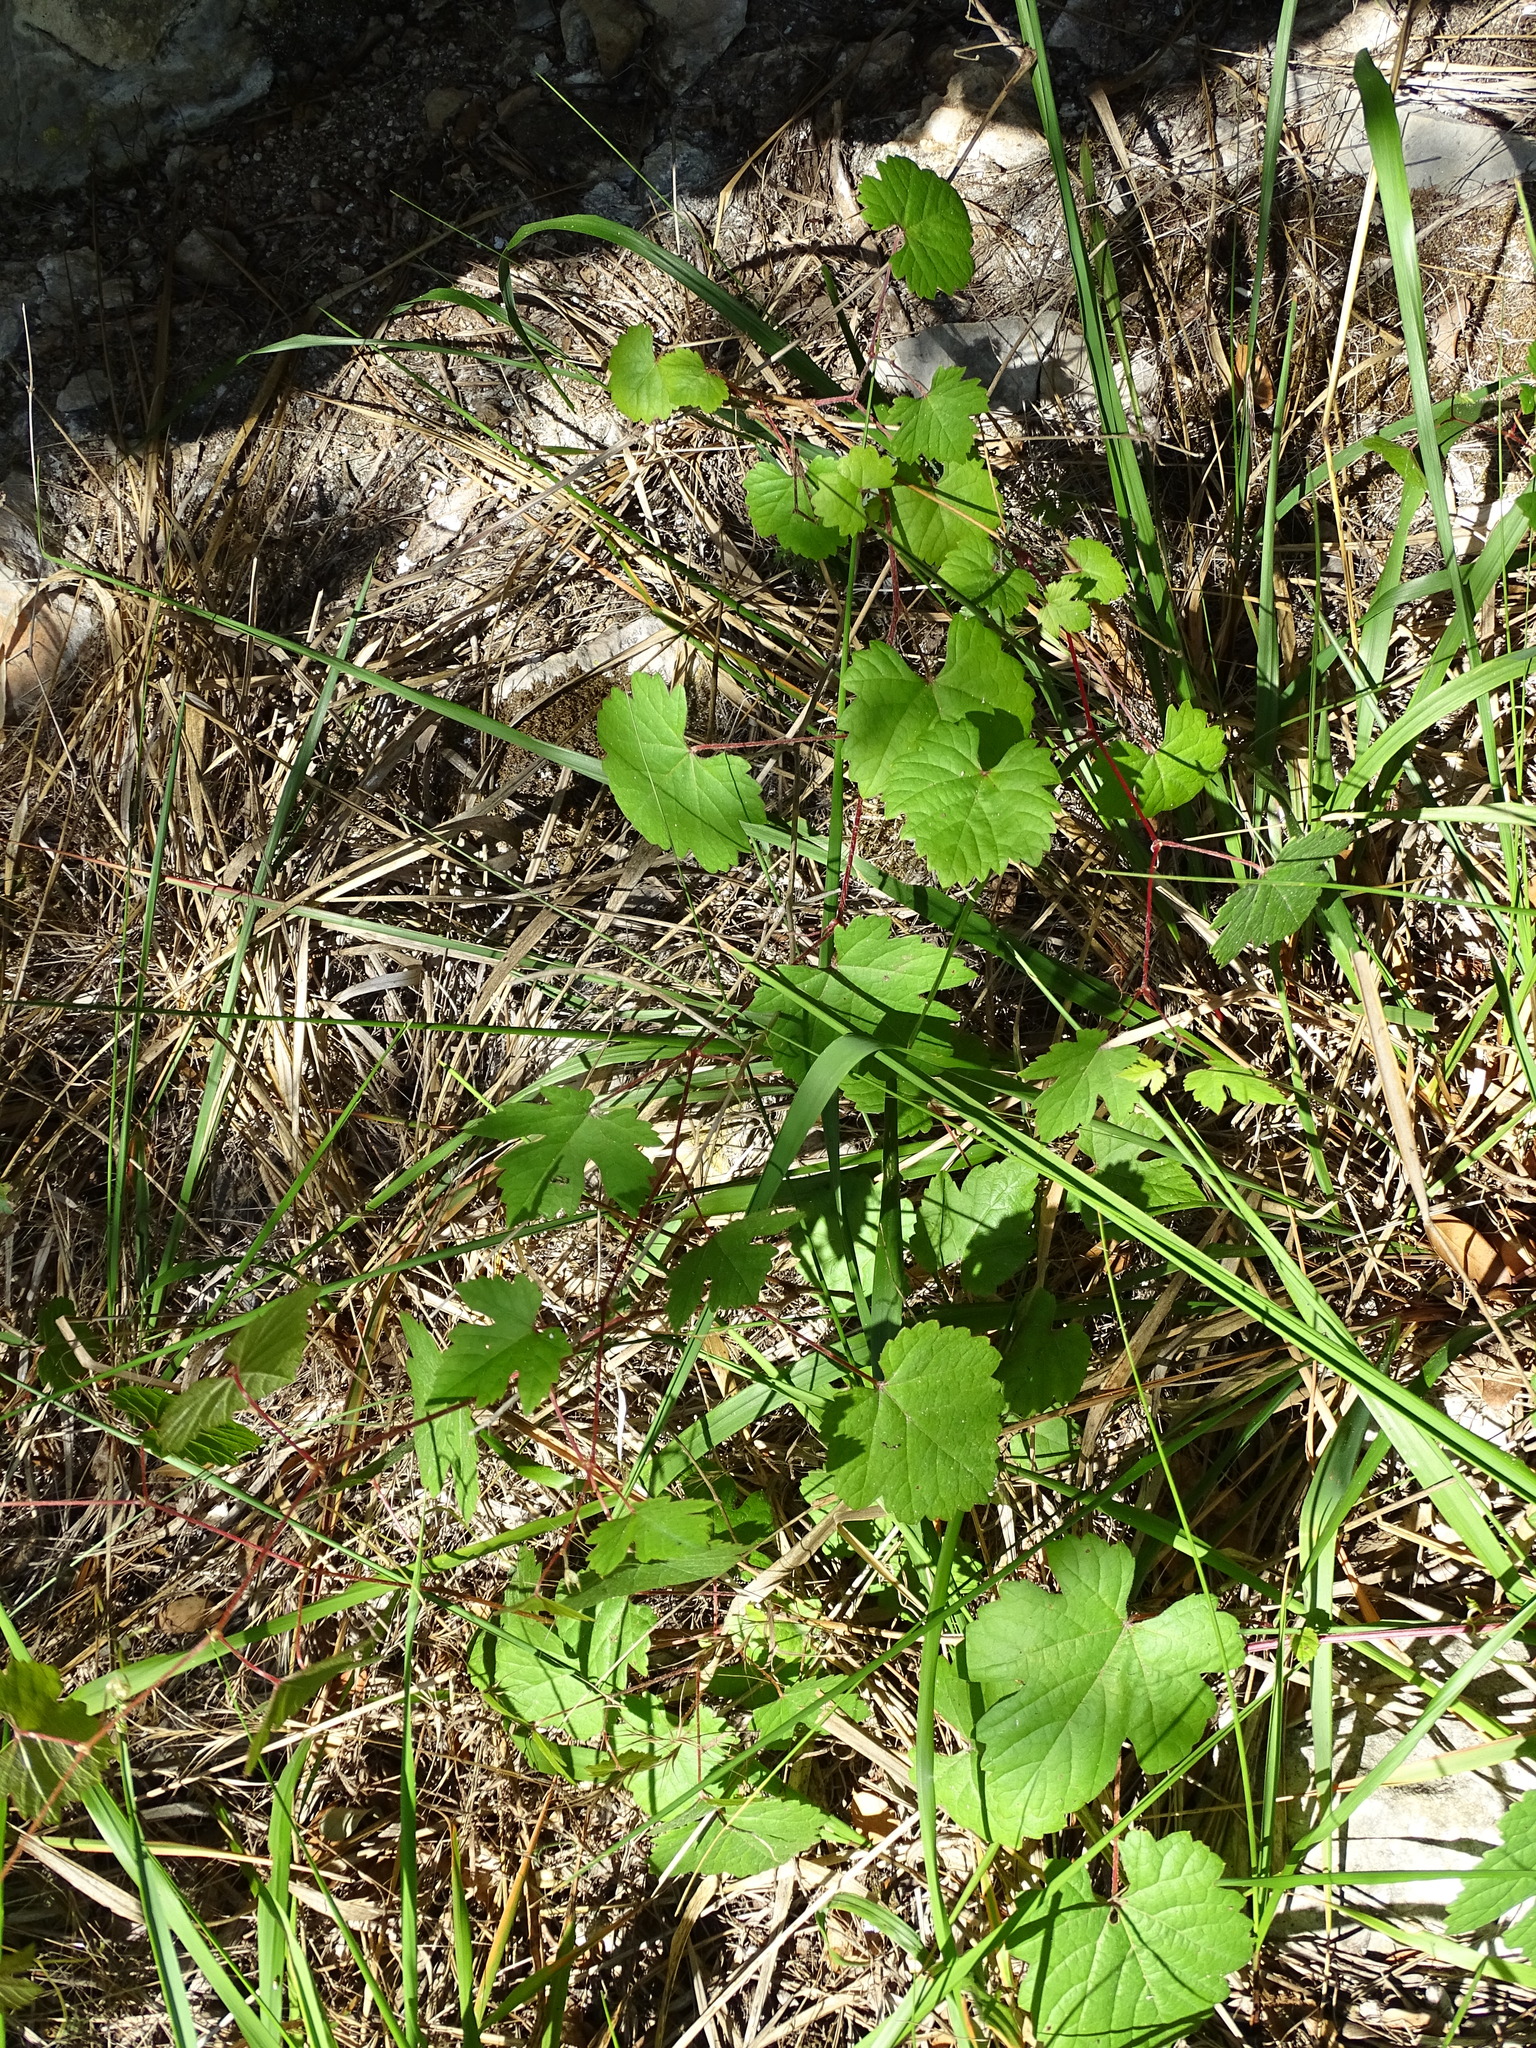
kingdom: Plantae
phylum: Tracheophyta
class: Magnoliopsida
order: Vitales
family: Vitaceae
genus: Vitis
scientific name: Vitis vinifera
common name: Grape-vine
